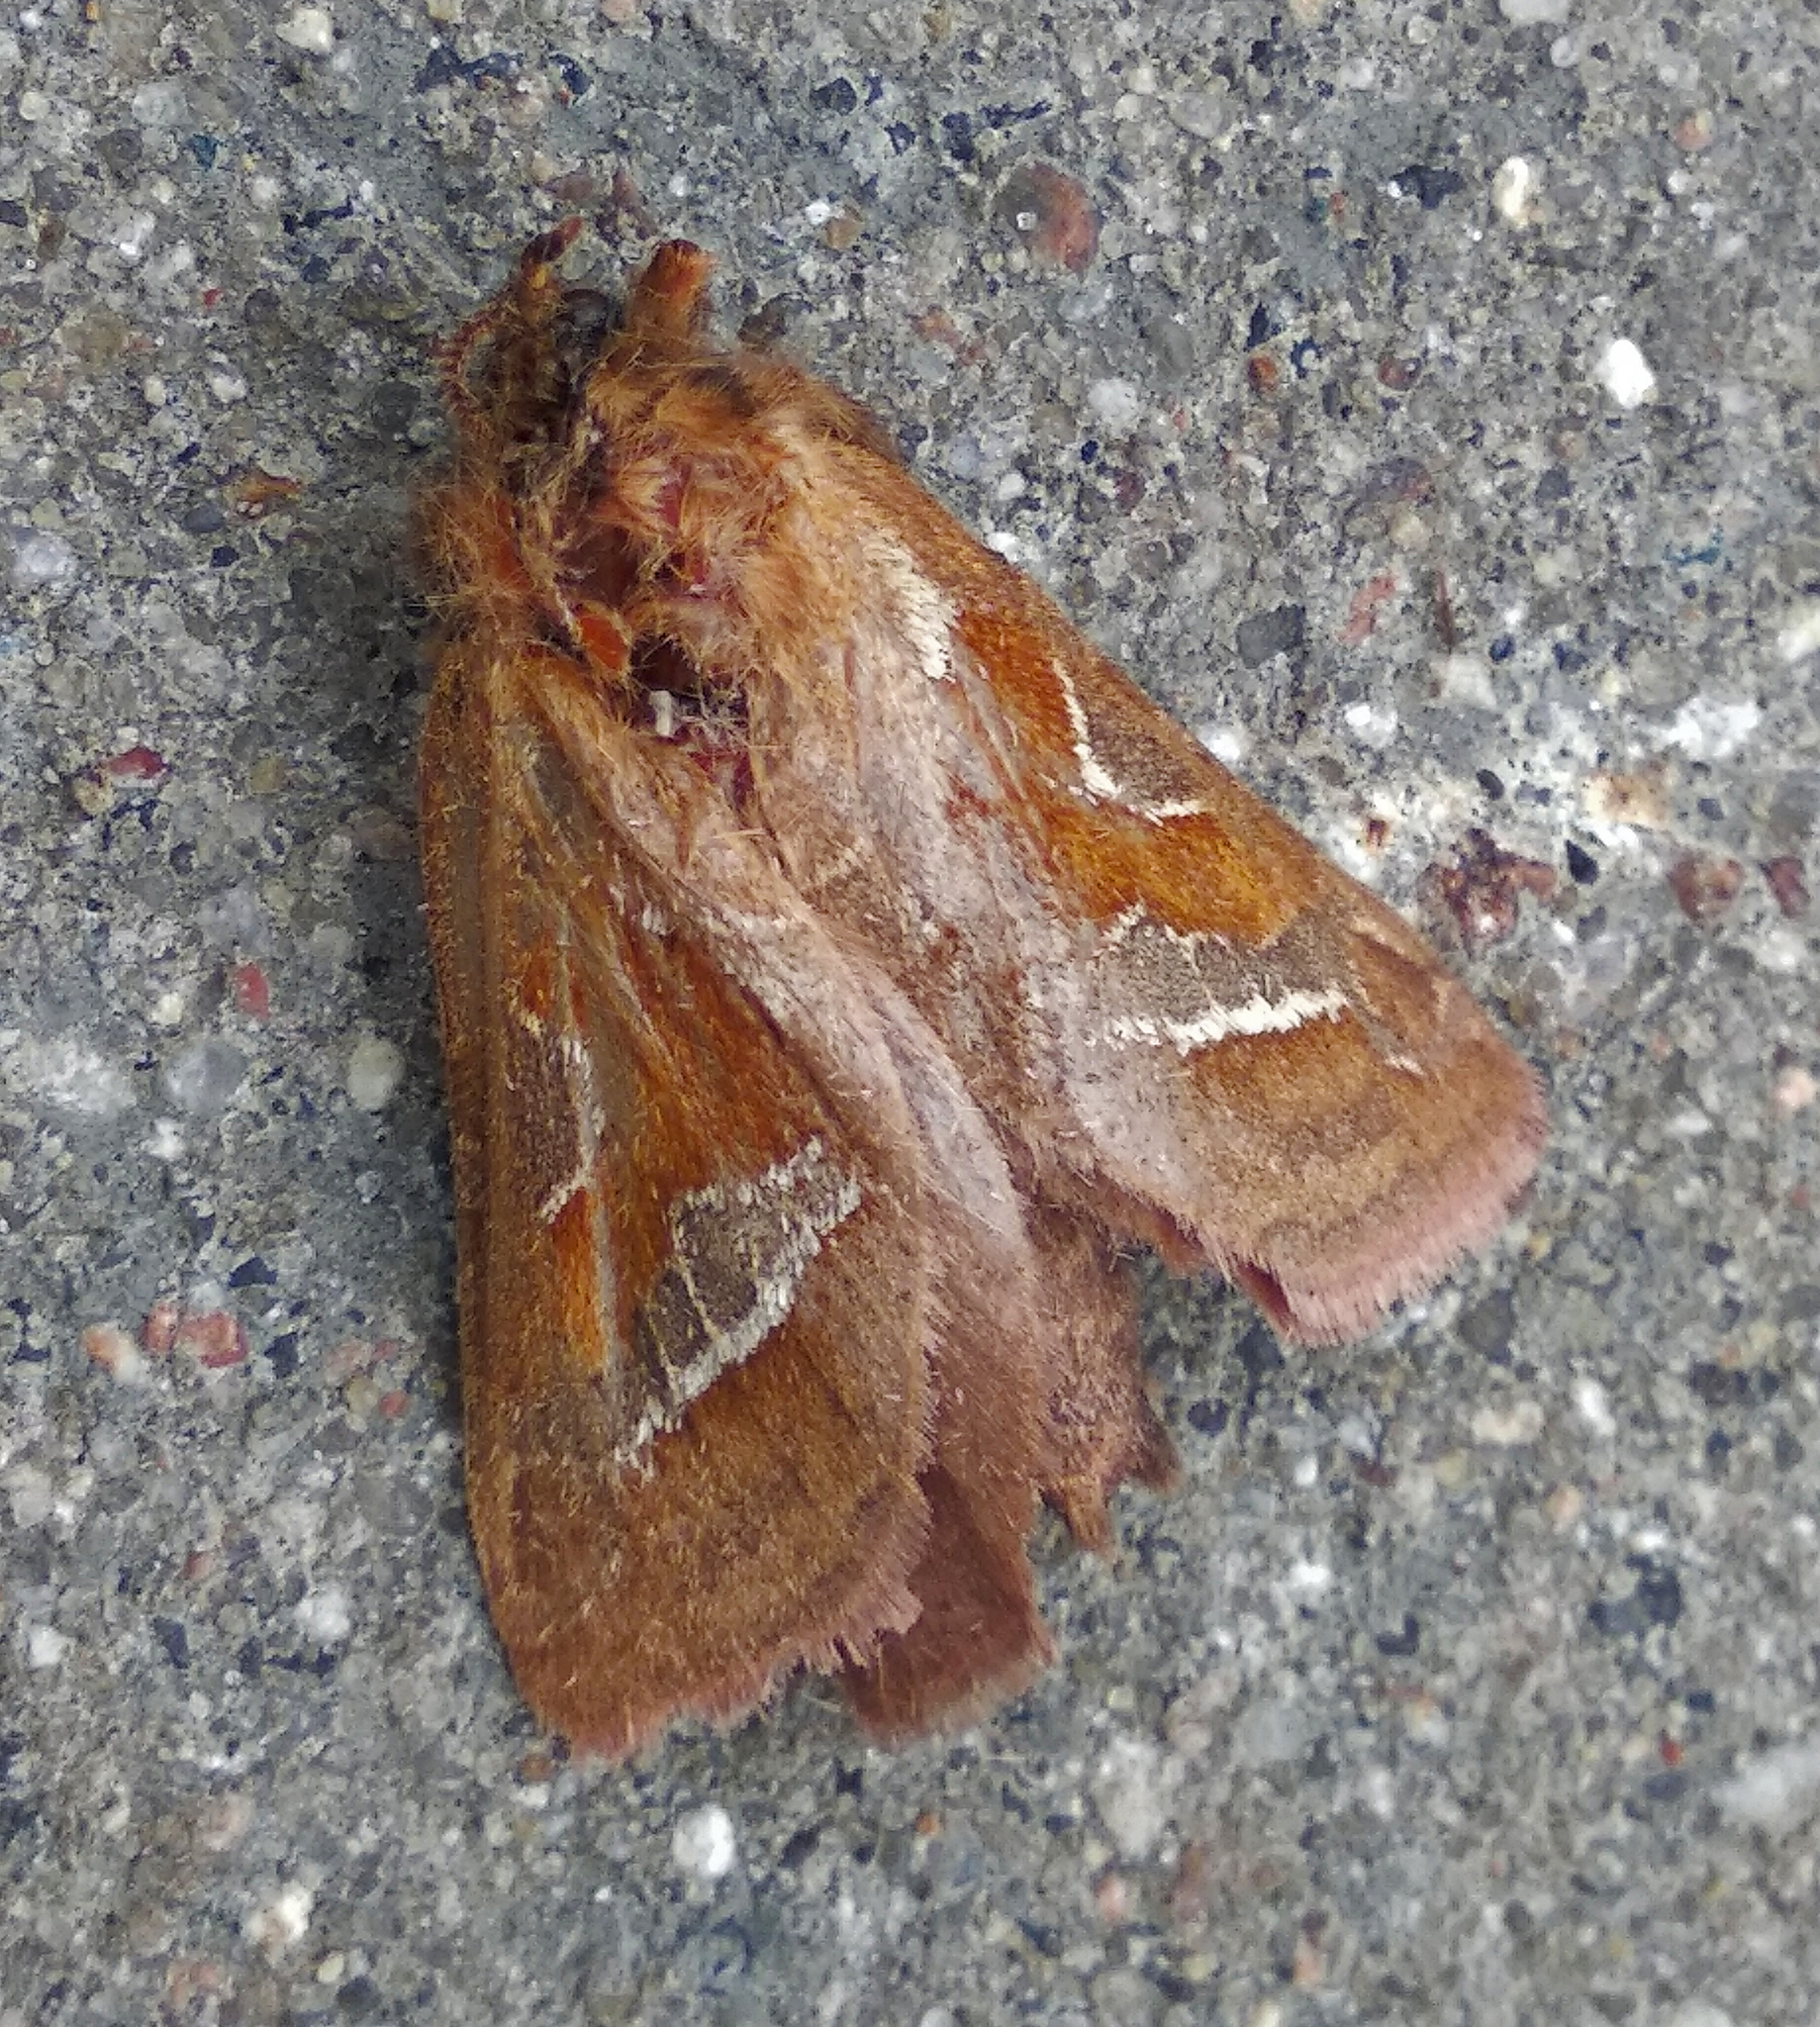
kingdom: Animalia
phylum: Arthropoda
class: Insecta
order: Lepidoptera
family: Hepialidae
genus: Triodia
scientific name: Triodia sylvina
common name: Orange swift
